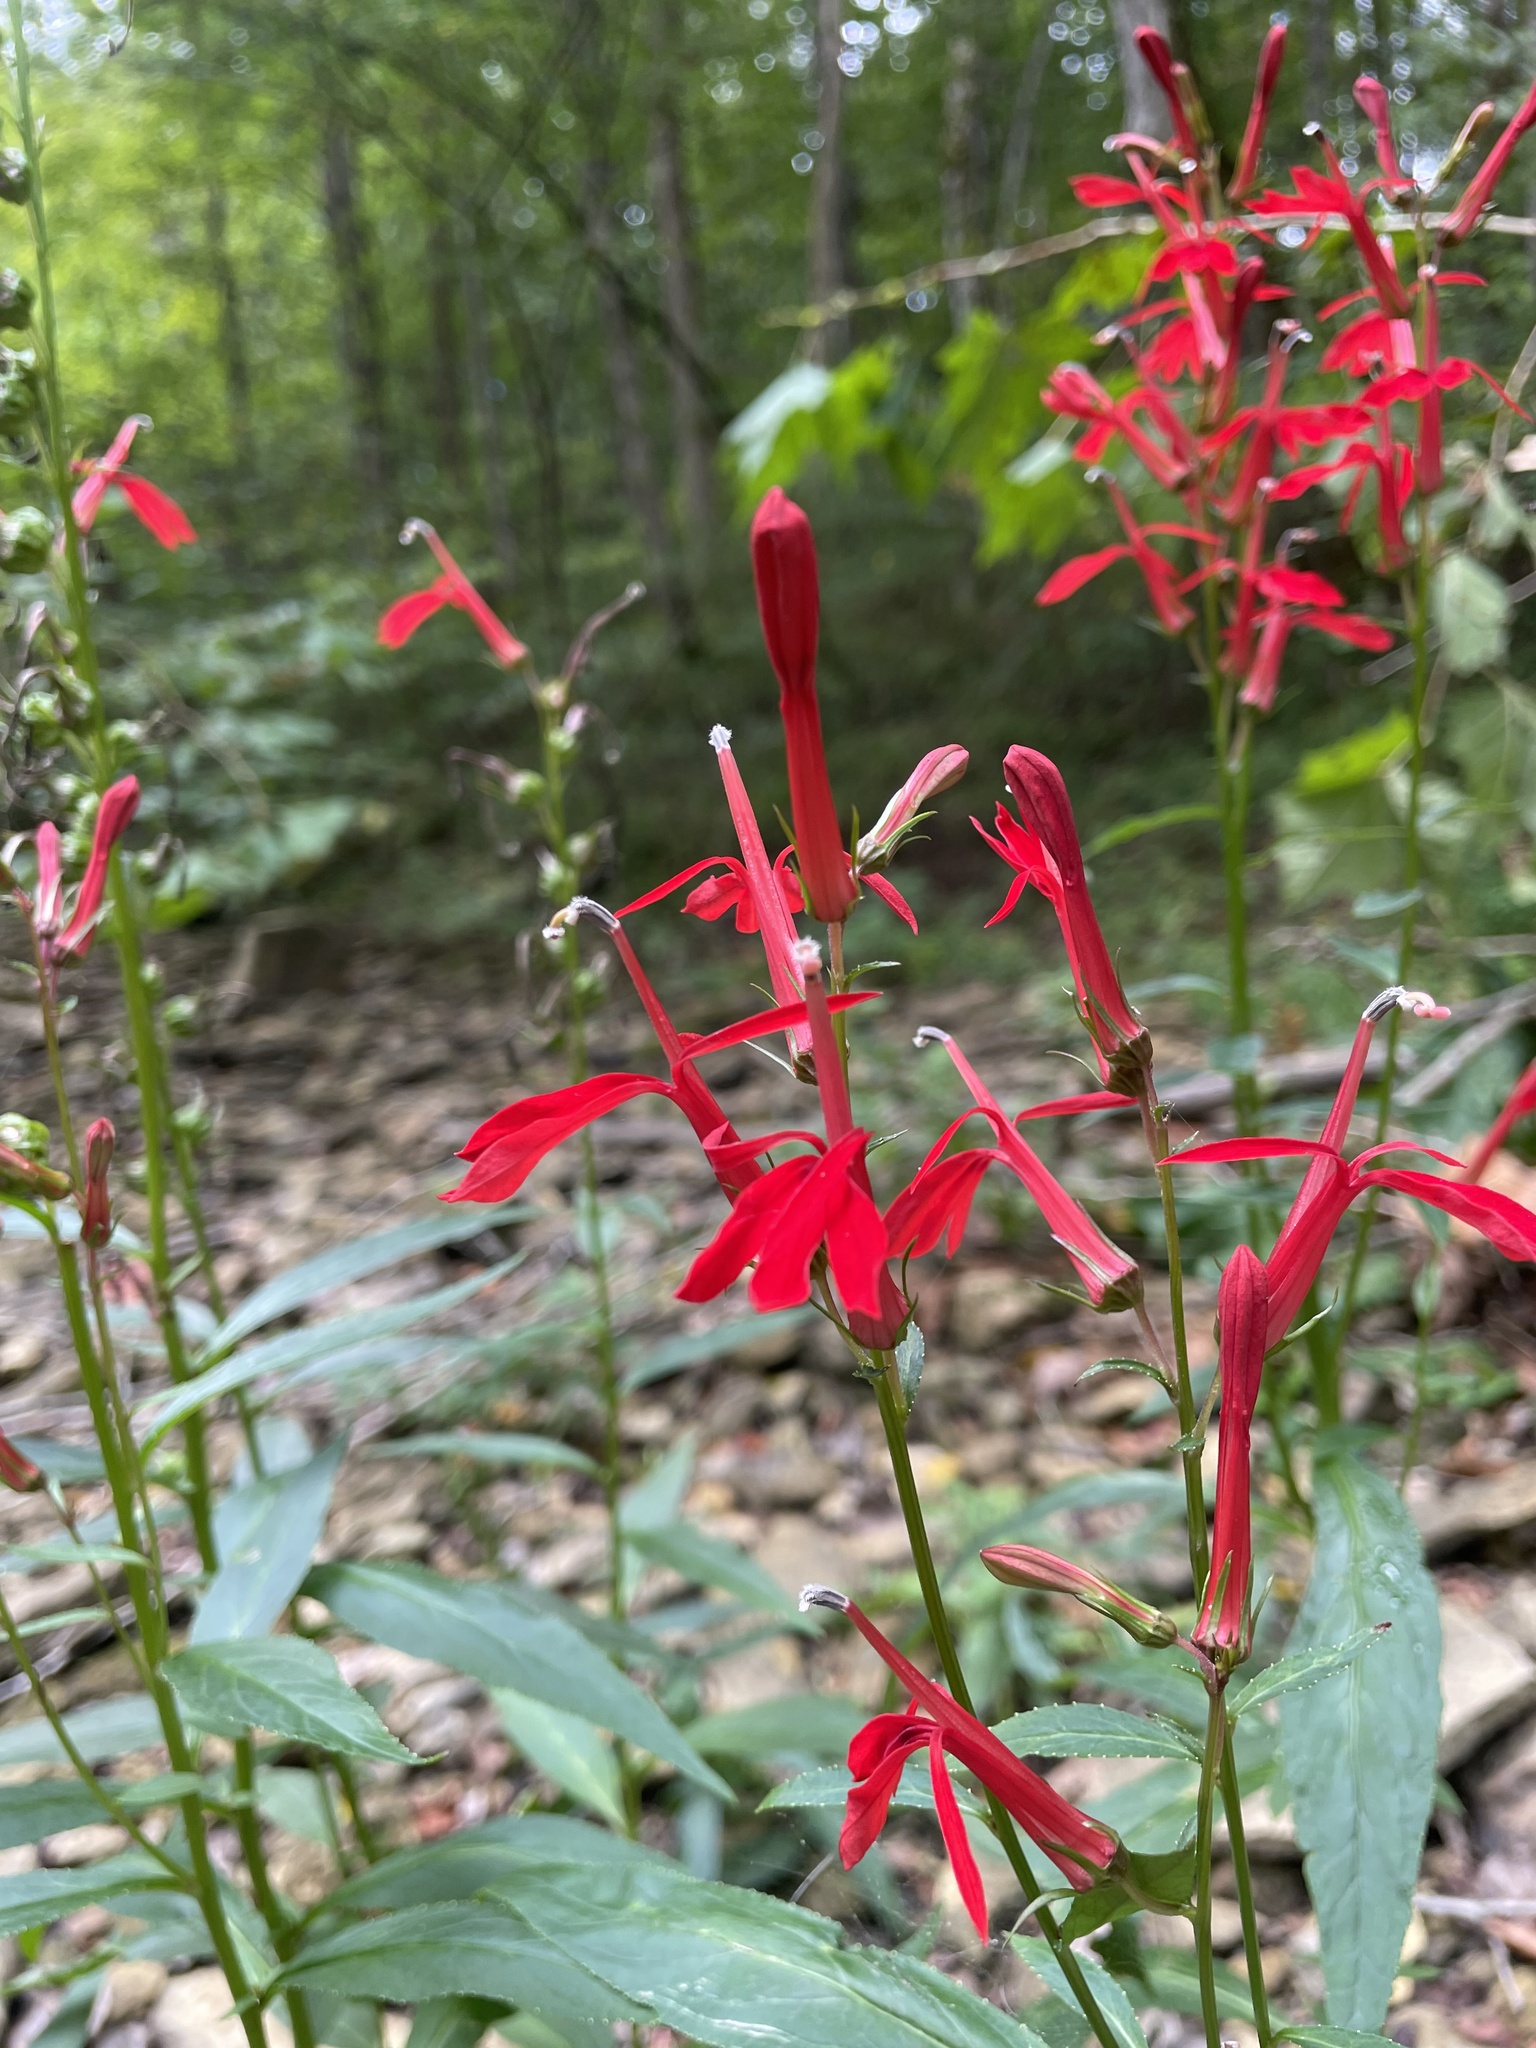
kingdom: Plantae
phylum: Tracheophyta
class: Magnoliopsida
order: Asterales
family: Campanulaceae
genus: Lobelia
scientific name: Lobelia cardinalis
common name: Cardinal flower
